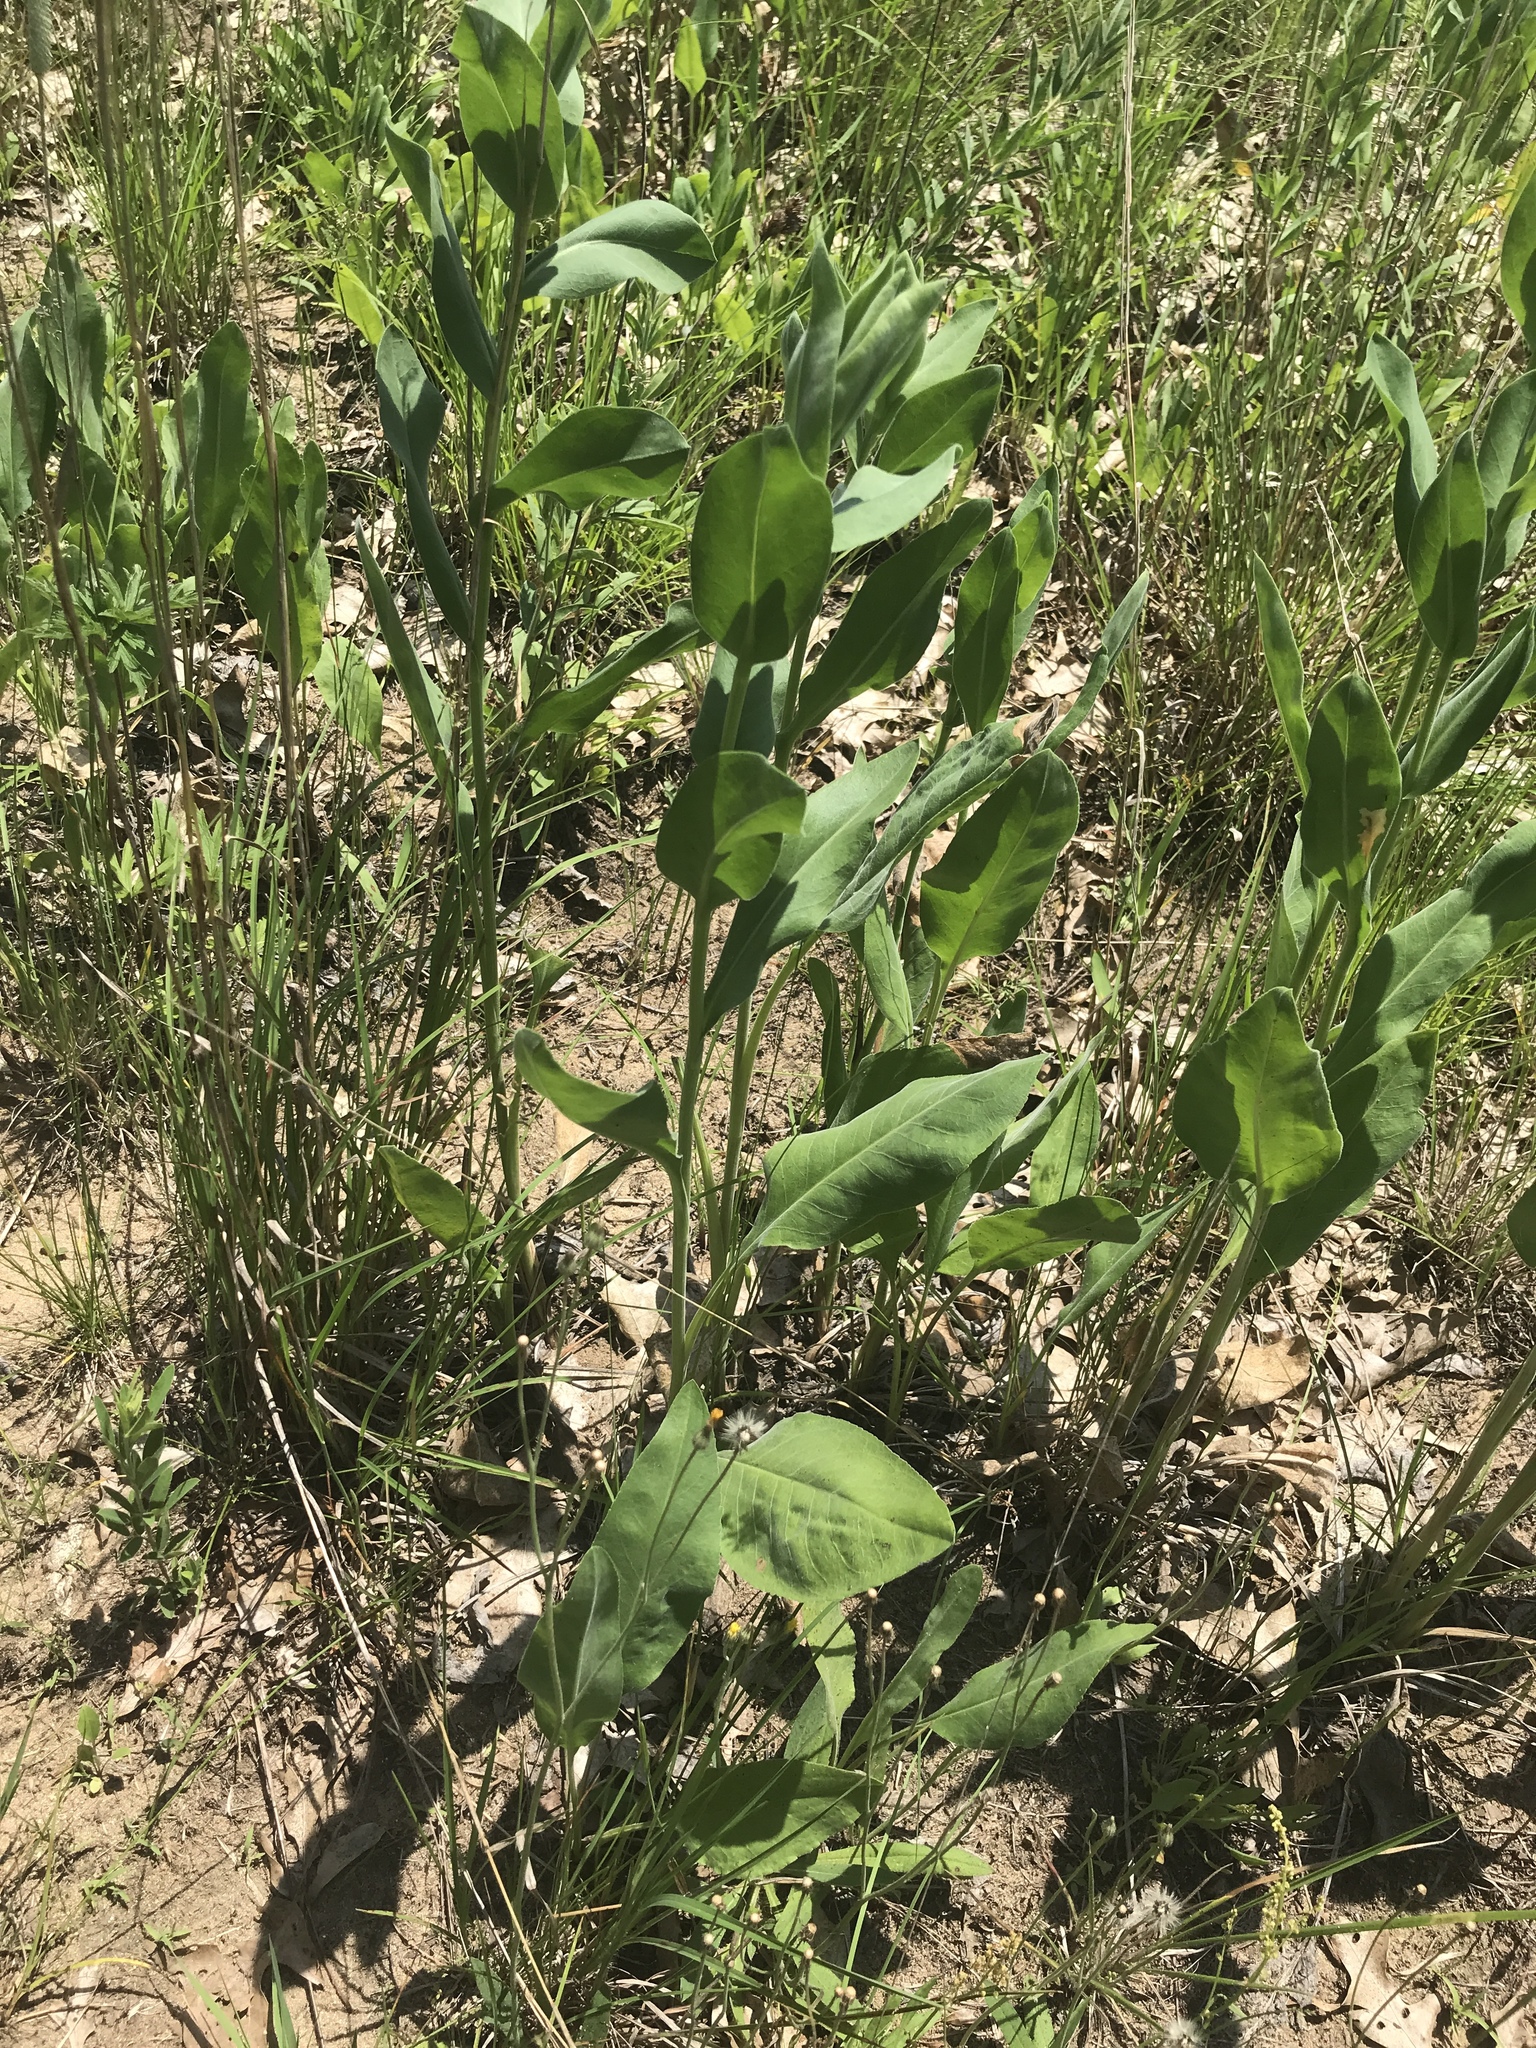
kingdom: Plantae
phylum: Tracheophyta
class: Magnoliopsida
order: Asterales
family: Asteraceae
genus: Solidago
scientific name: Solidago rigida
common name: Rigid goldenrod
